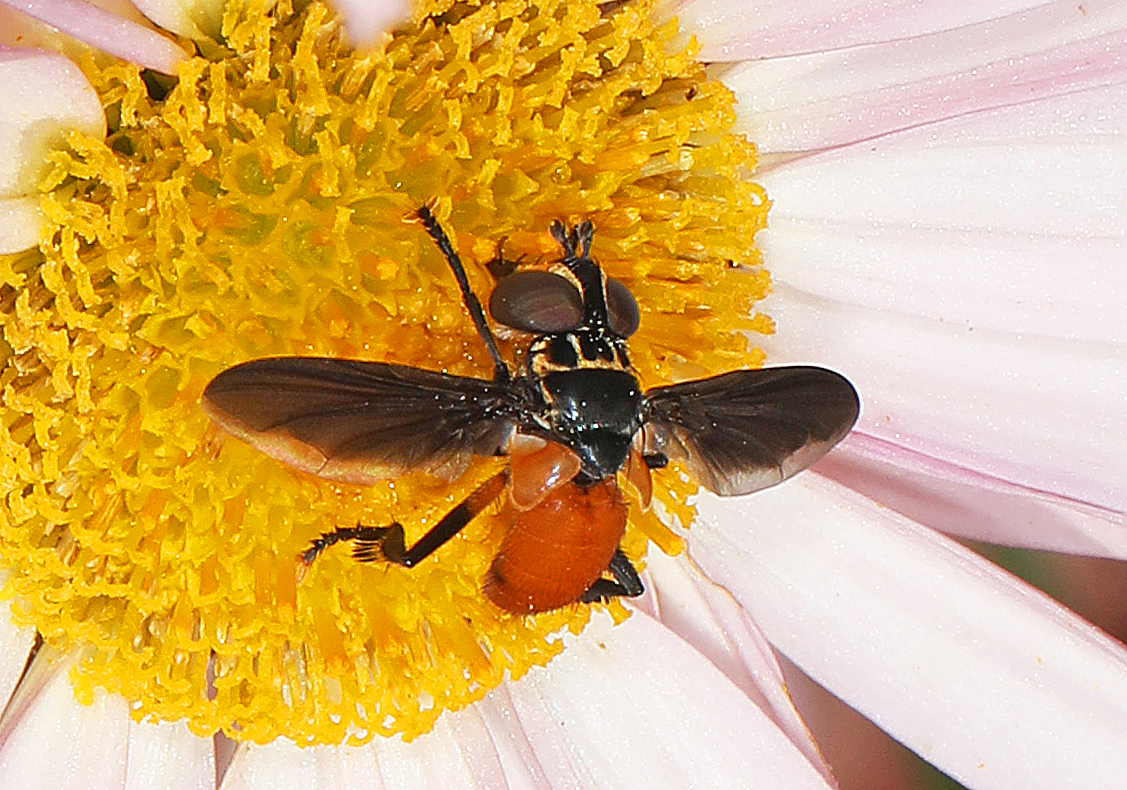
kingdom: Animalia
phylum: Arthropoda
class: Insecta
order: Diptera
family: Tachinidae
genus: Trichopoda
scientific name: Trichopoda pennipes
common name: Tachinid fly
